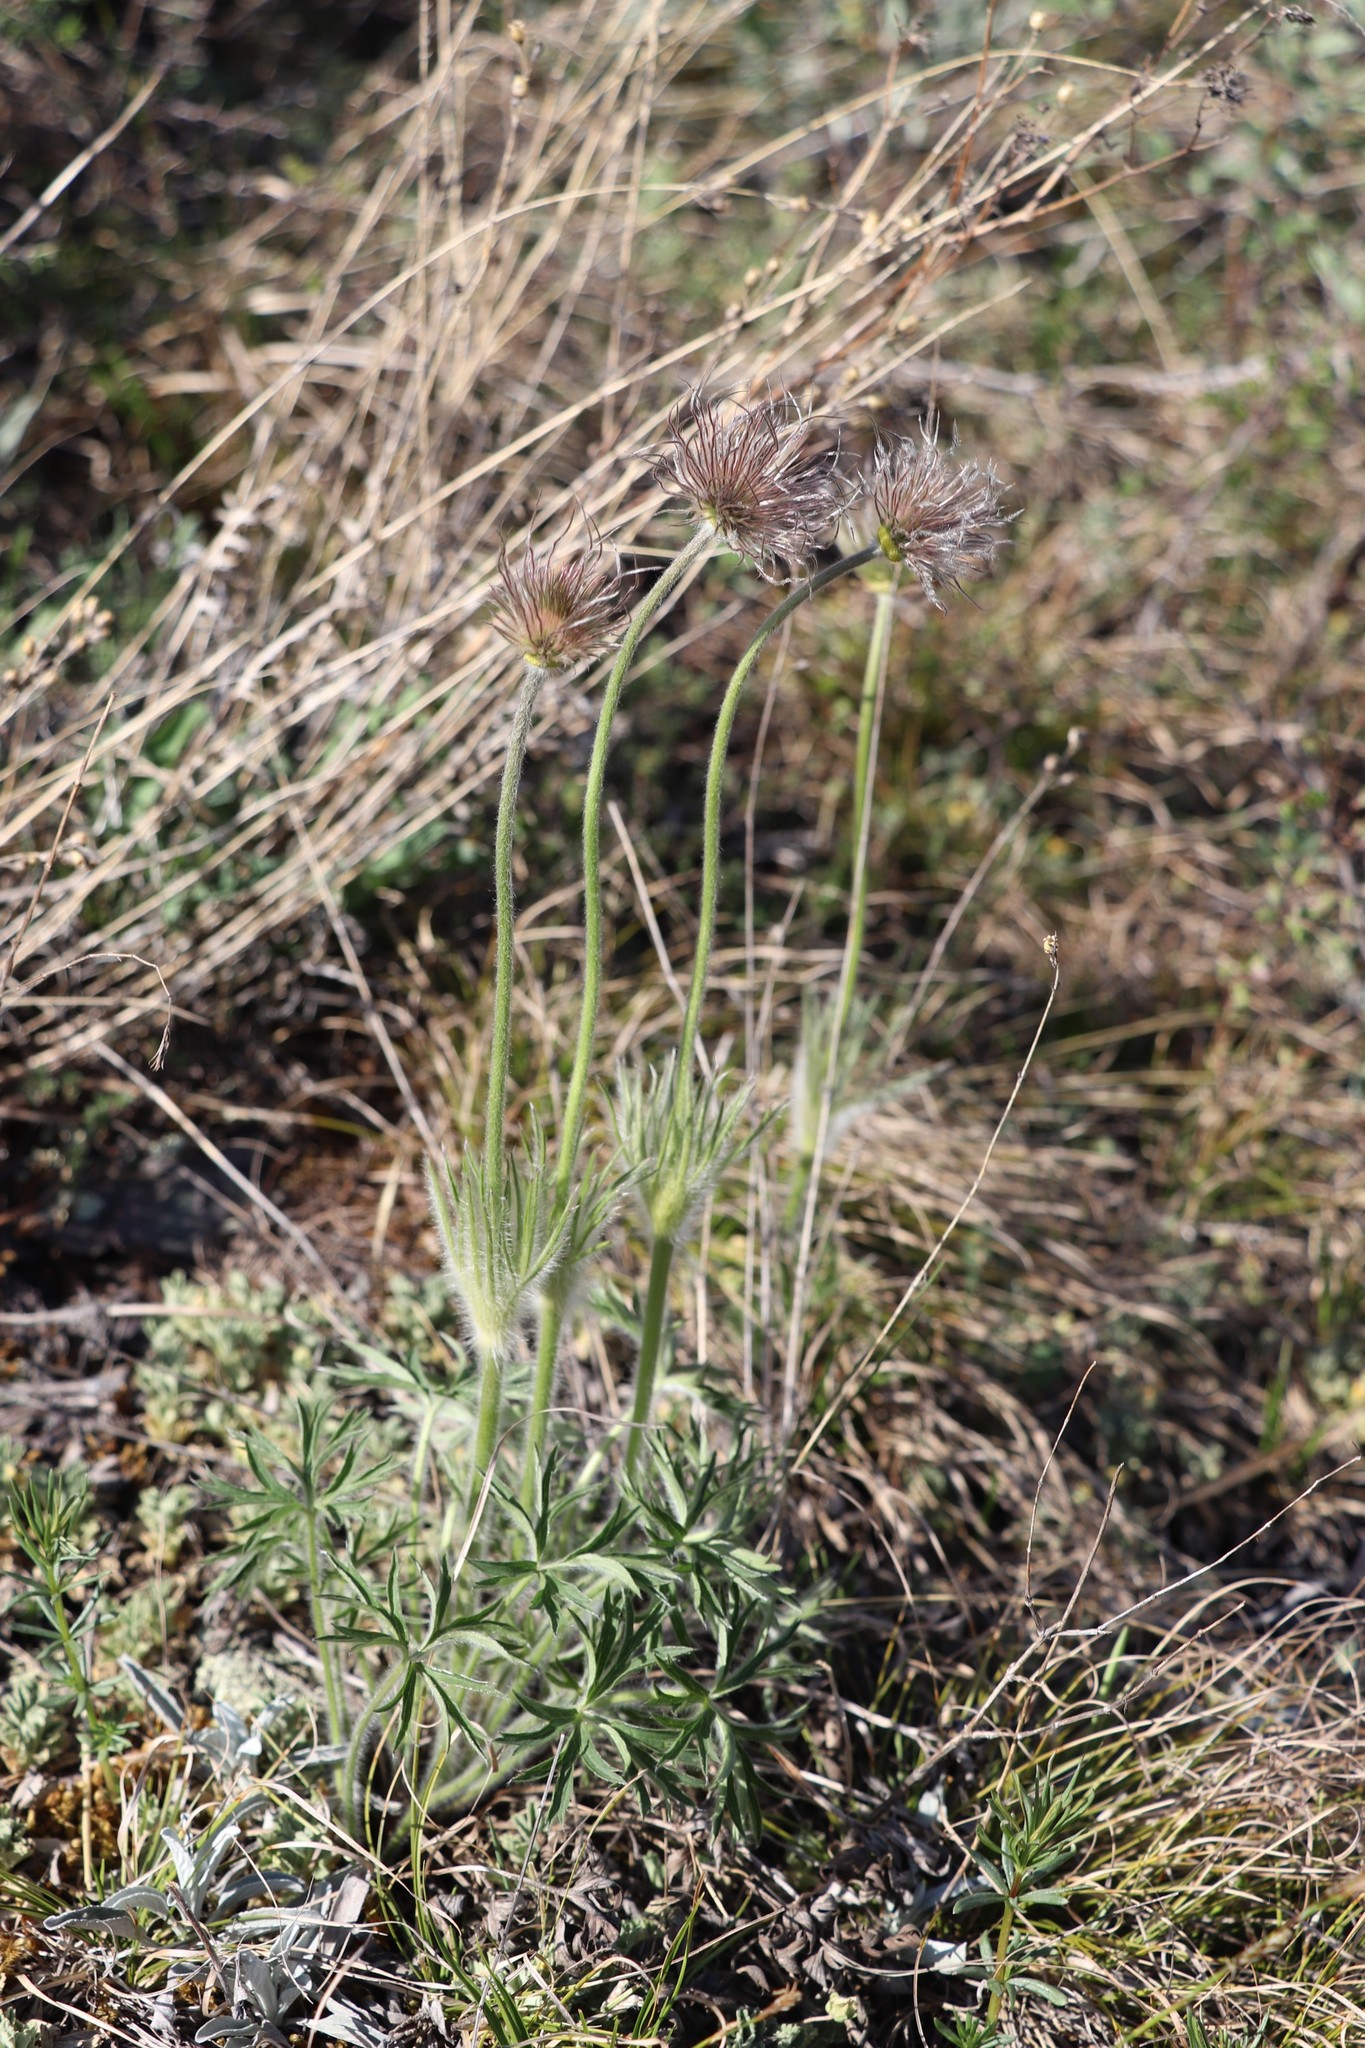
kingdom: Plantae
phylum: Tracheophyta
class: Magnoliopsida
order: Ranunculales
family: Ranunculaceae
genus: Pulsatilla
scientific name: Pulsatilla patens
